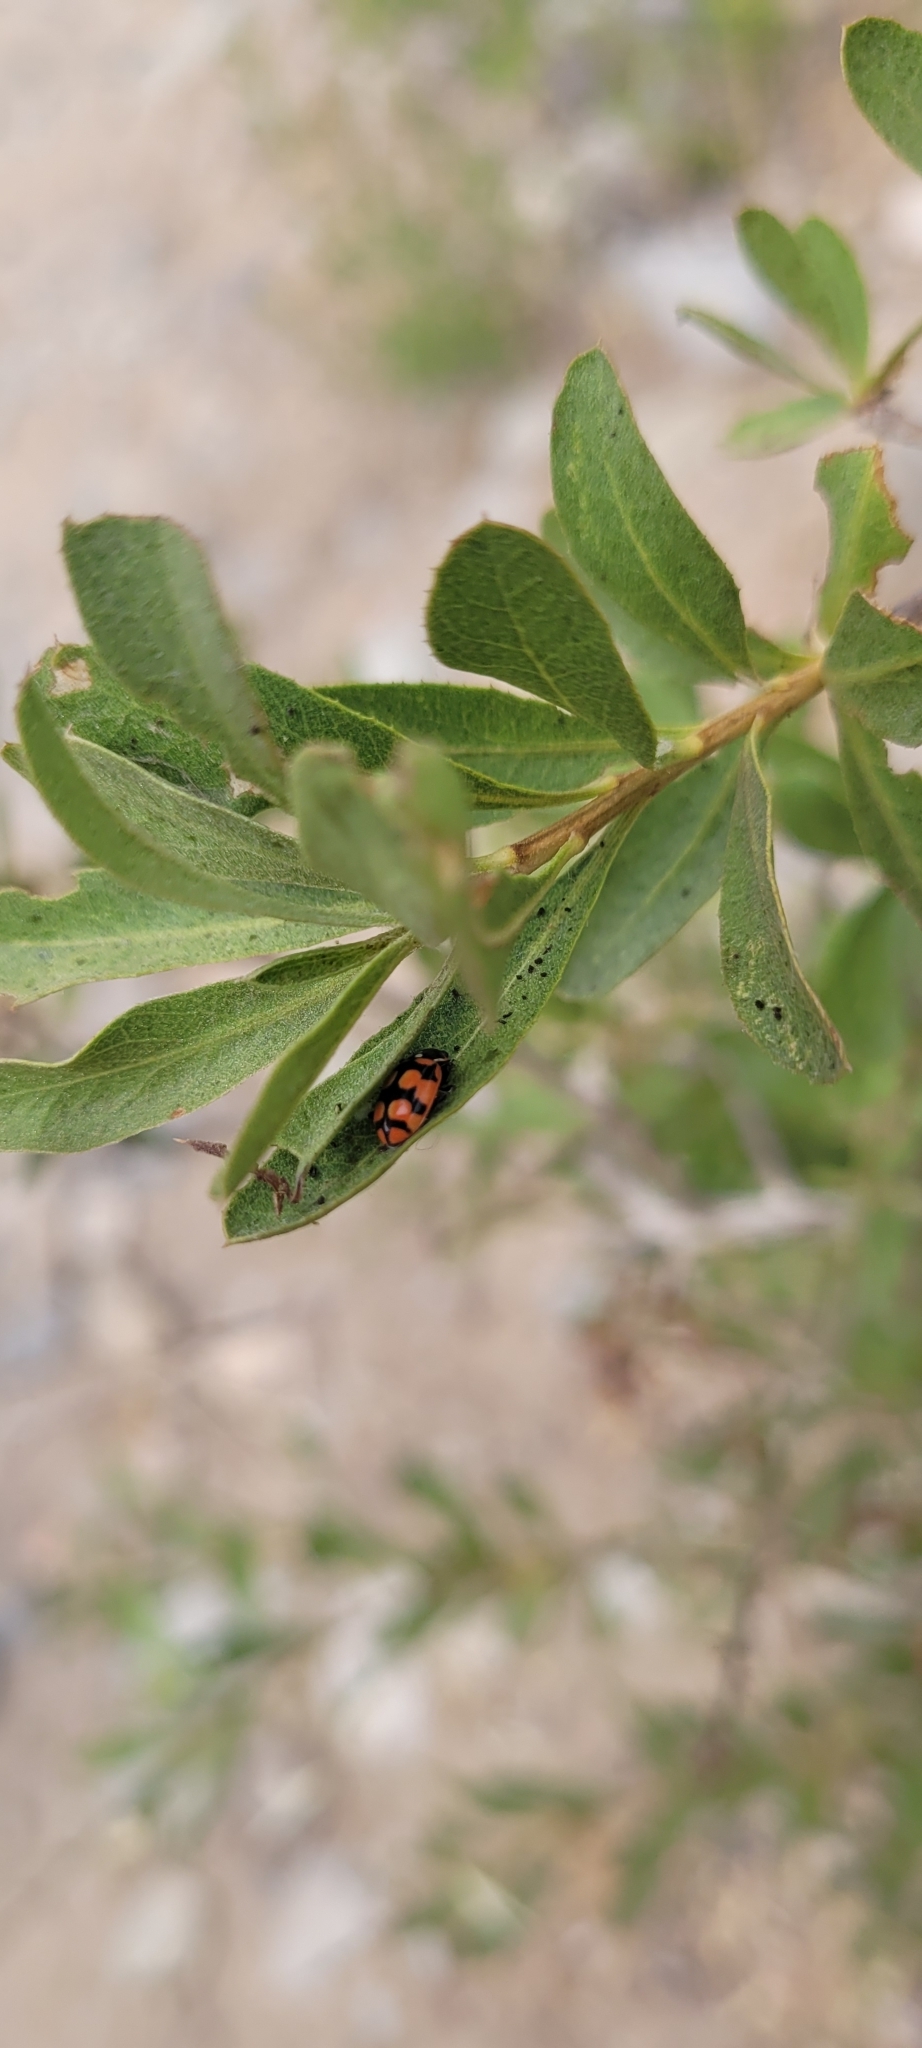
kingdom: Animalia
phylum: Arthropoda
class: Insecta
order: Coleoptera
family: Coccinellidae
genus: Eriopis
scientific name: Eriopis chilensis
